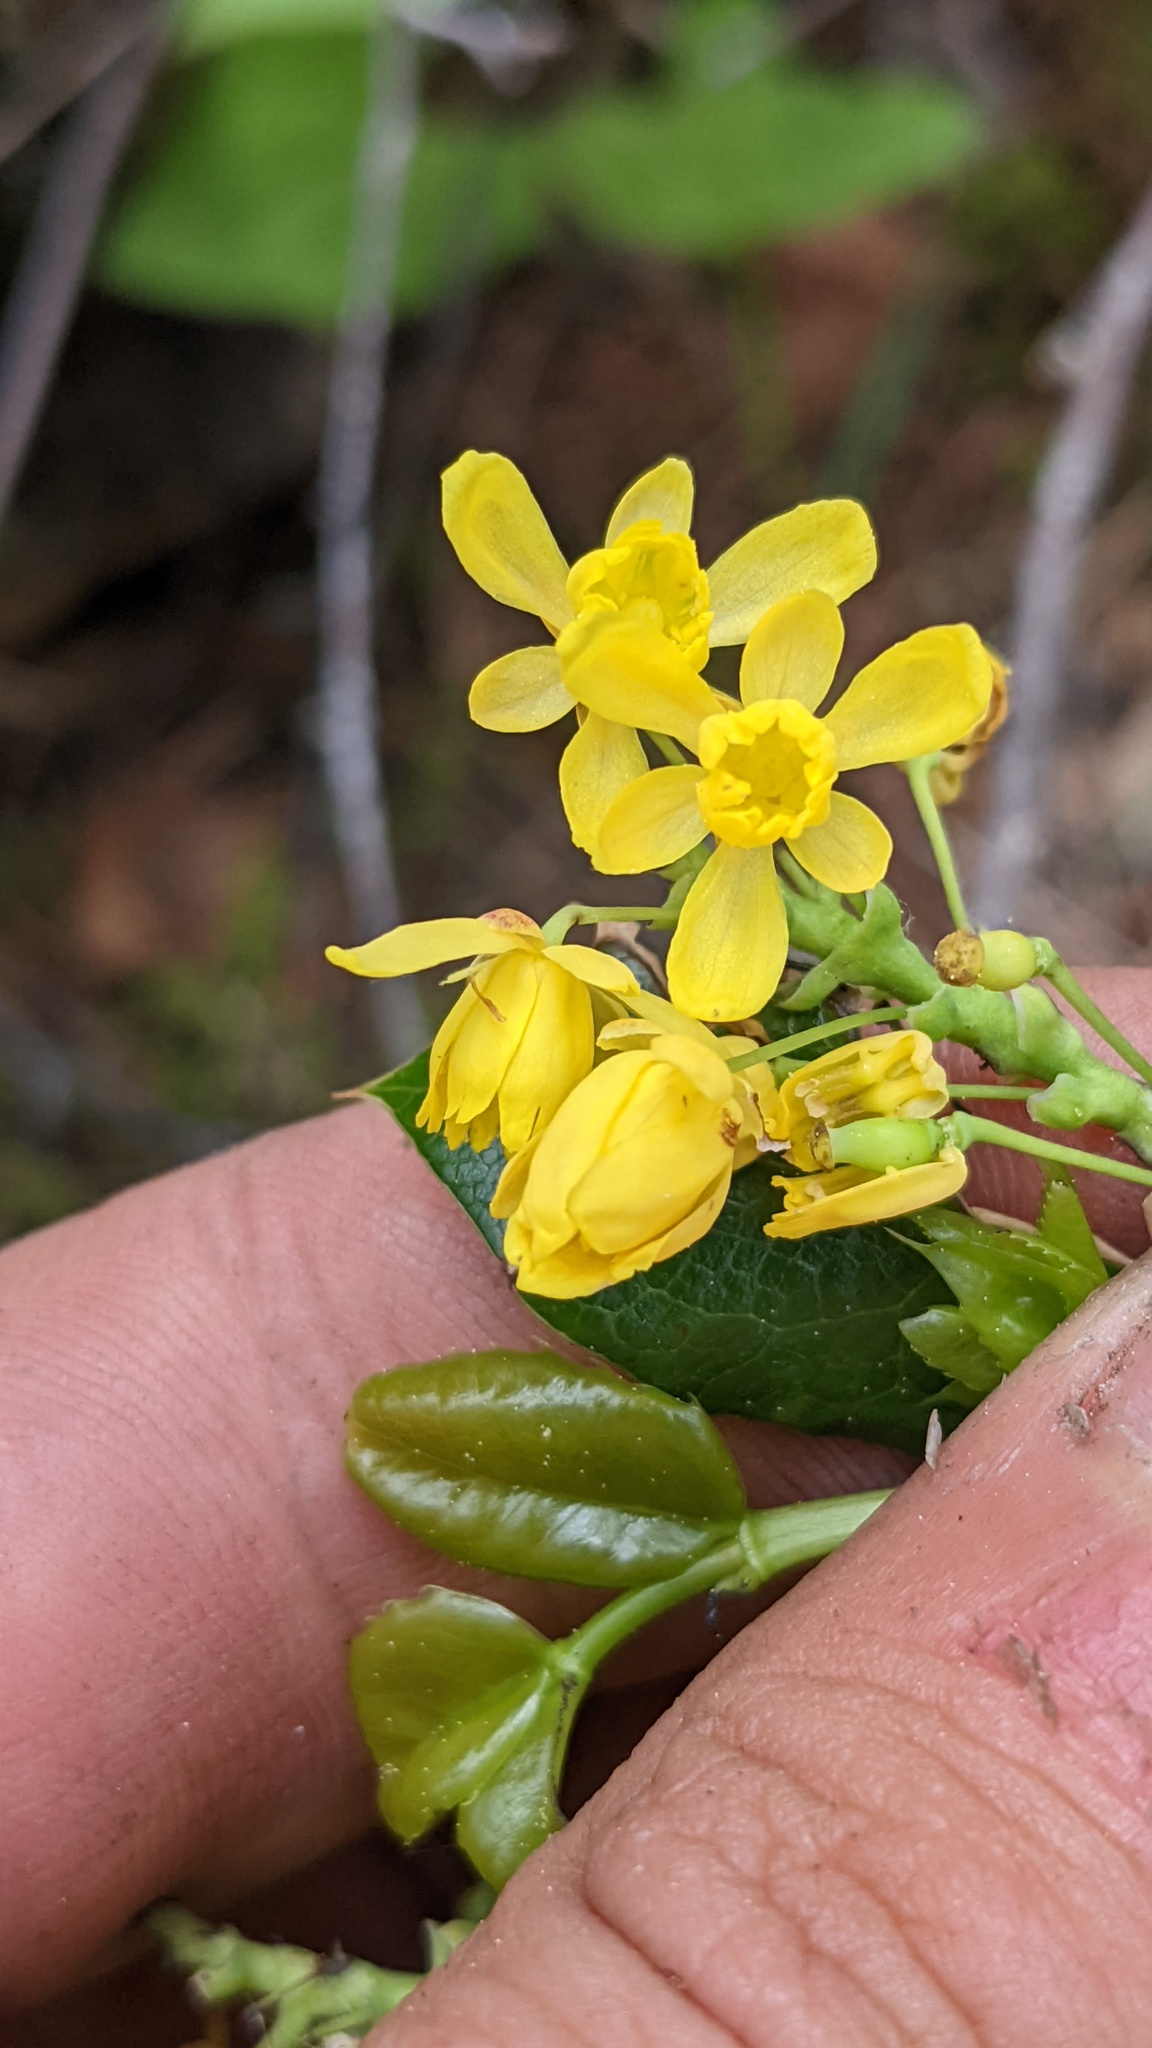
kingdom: Plantae
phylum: Tracheophyta
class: Magnoliopsida
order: Ranunculales
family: Berberidaceae
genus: Mahonia
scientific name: Mahonia aquifolium
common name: Oregon-grape
